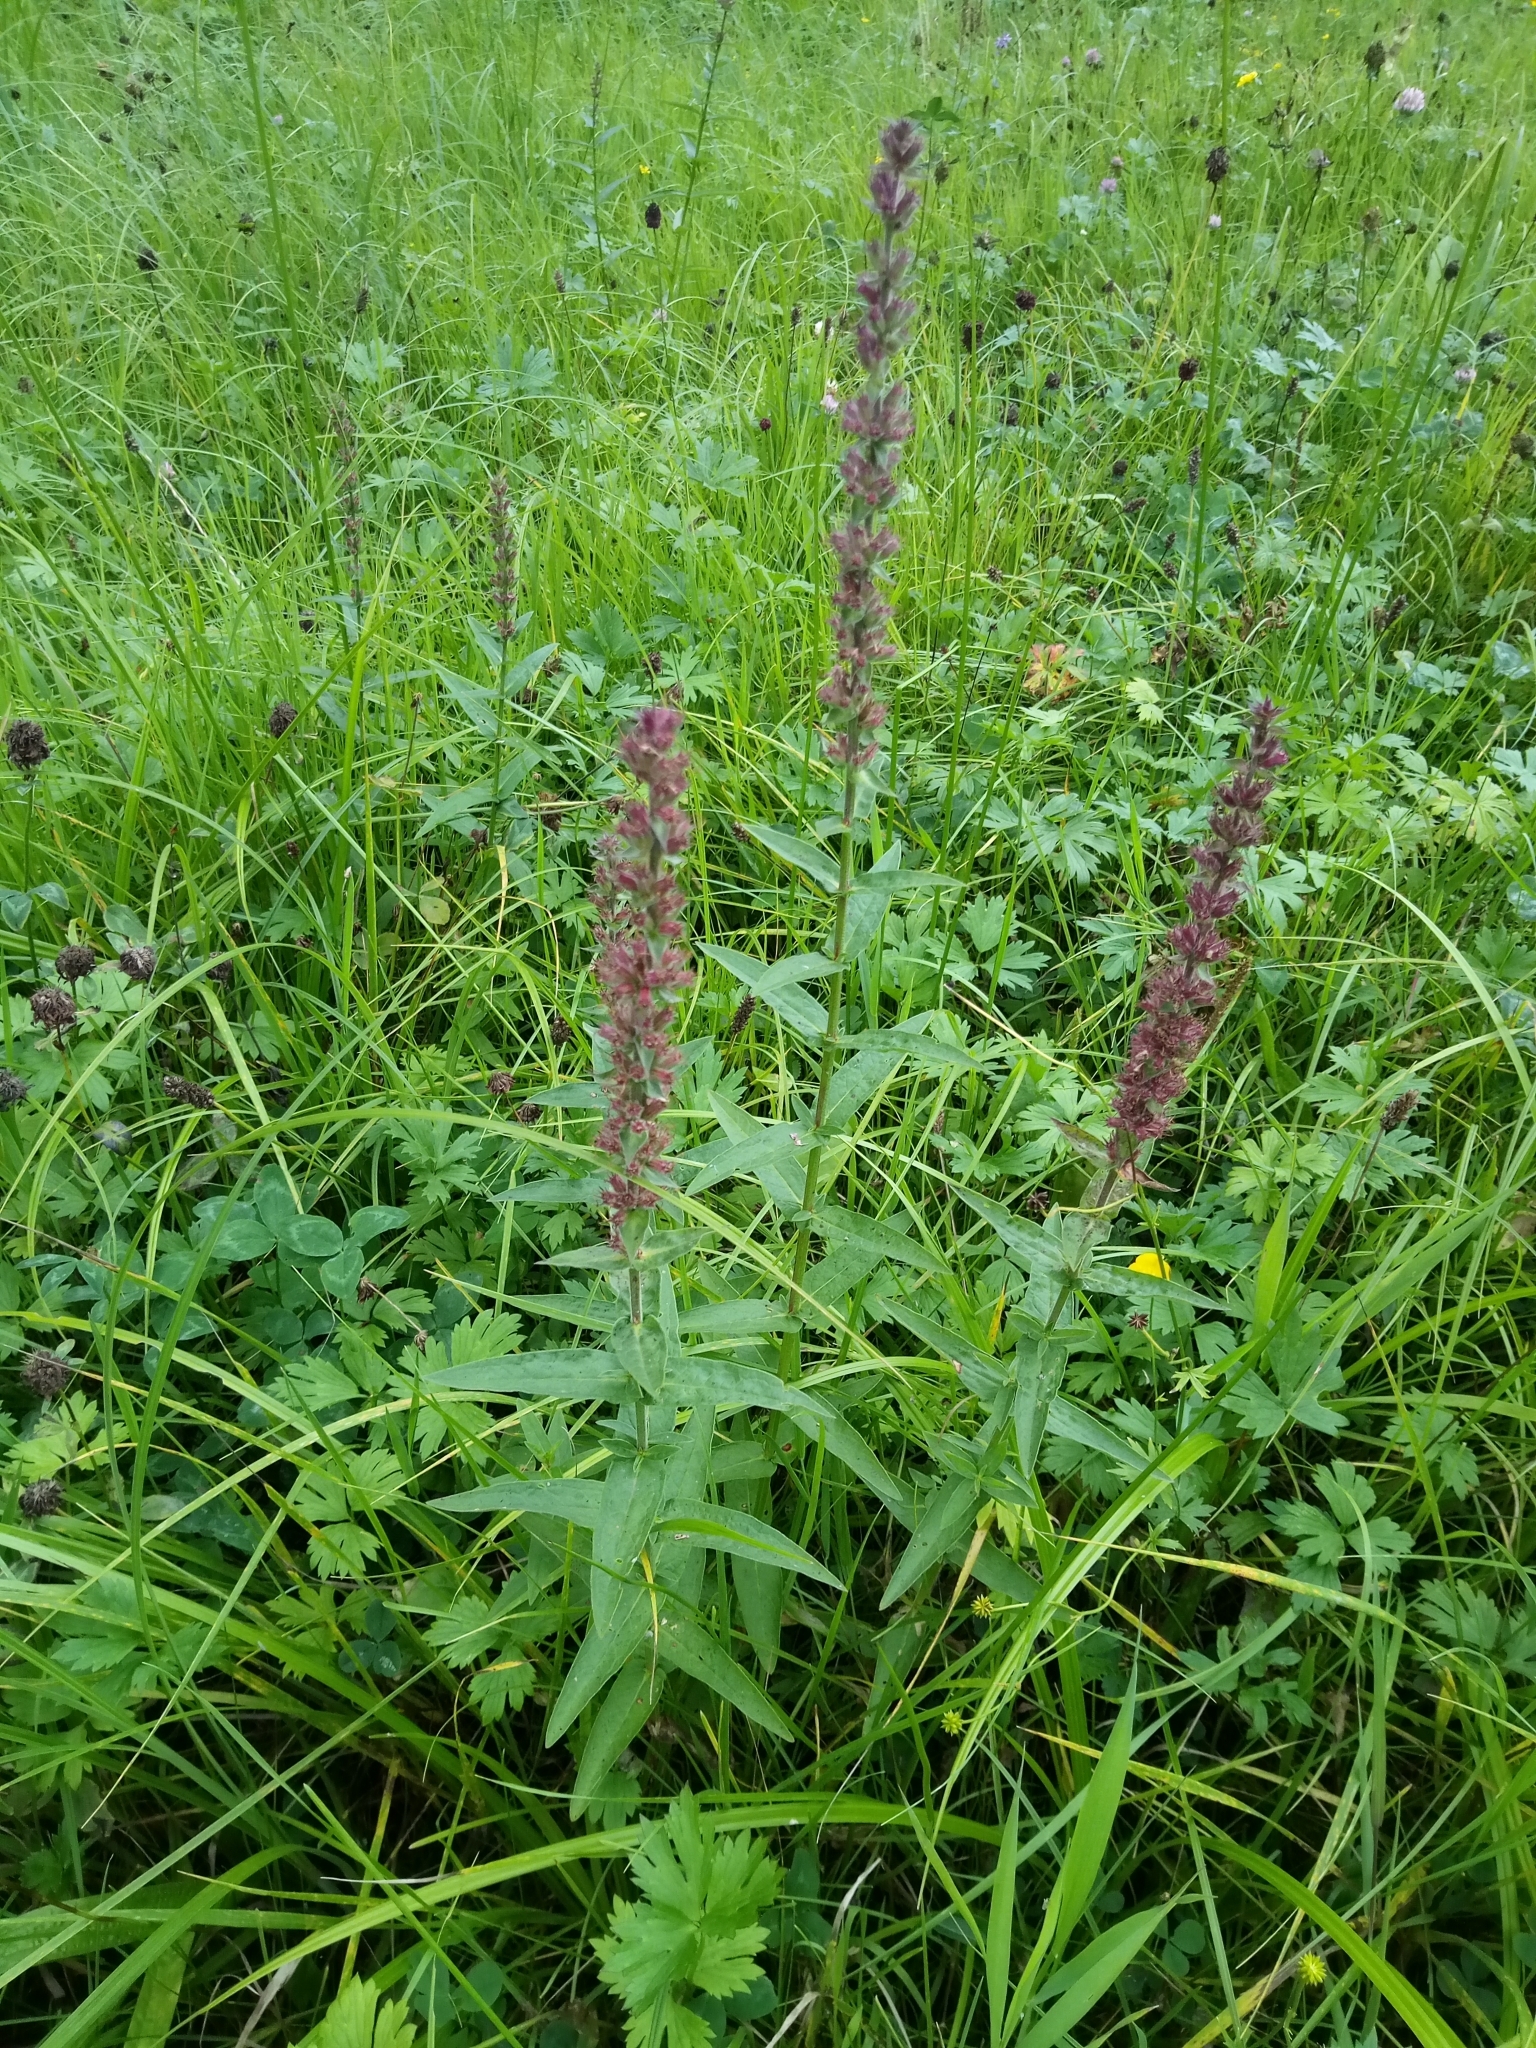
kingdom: Plantae
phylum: Tracheophyta
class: Magnoliopsida
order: Myrtales
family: Lythraceae
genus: Lythrum
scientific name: Lythrum salicaria
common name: Purple loosestrife
